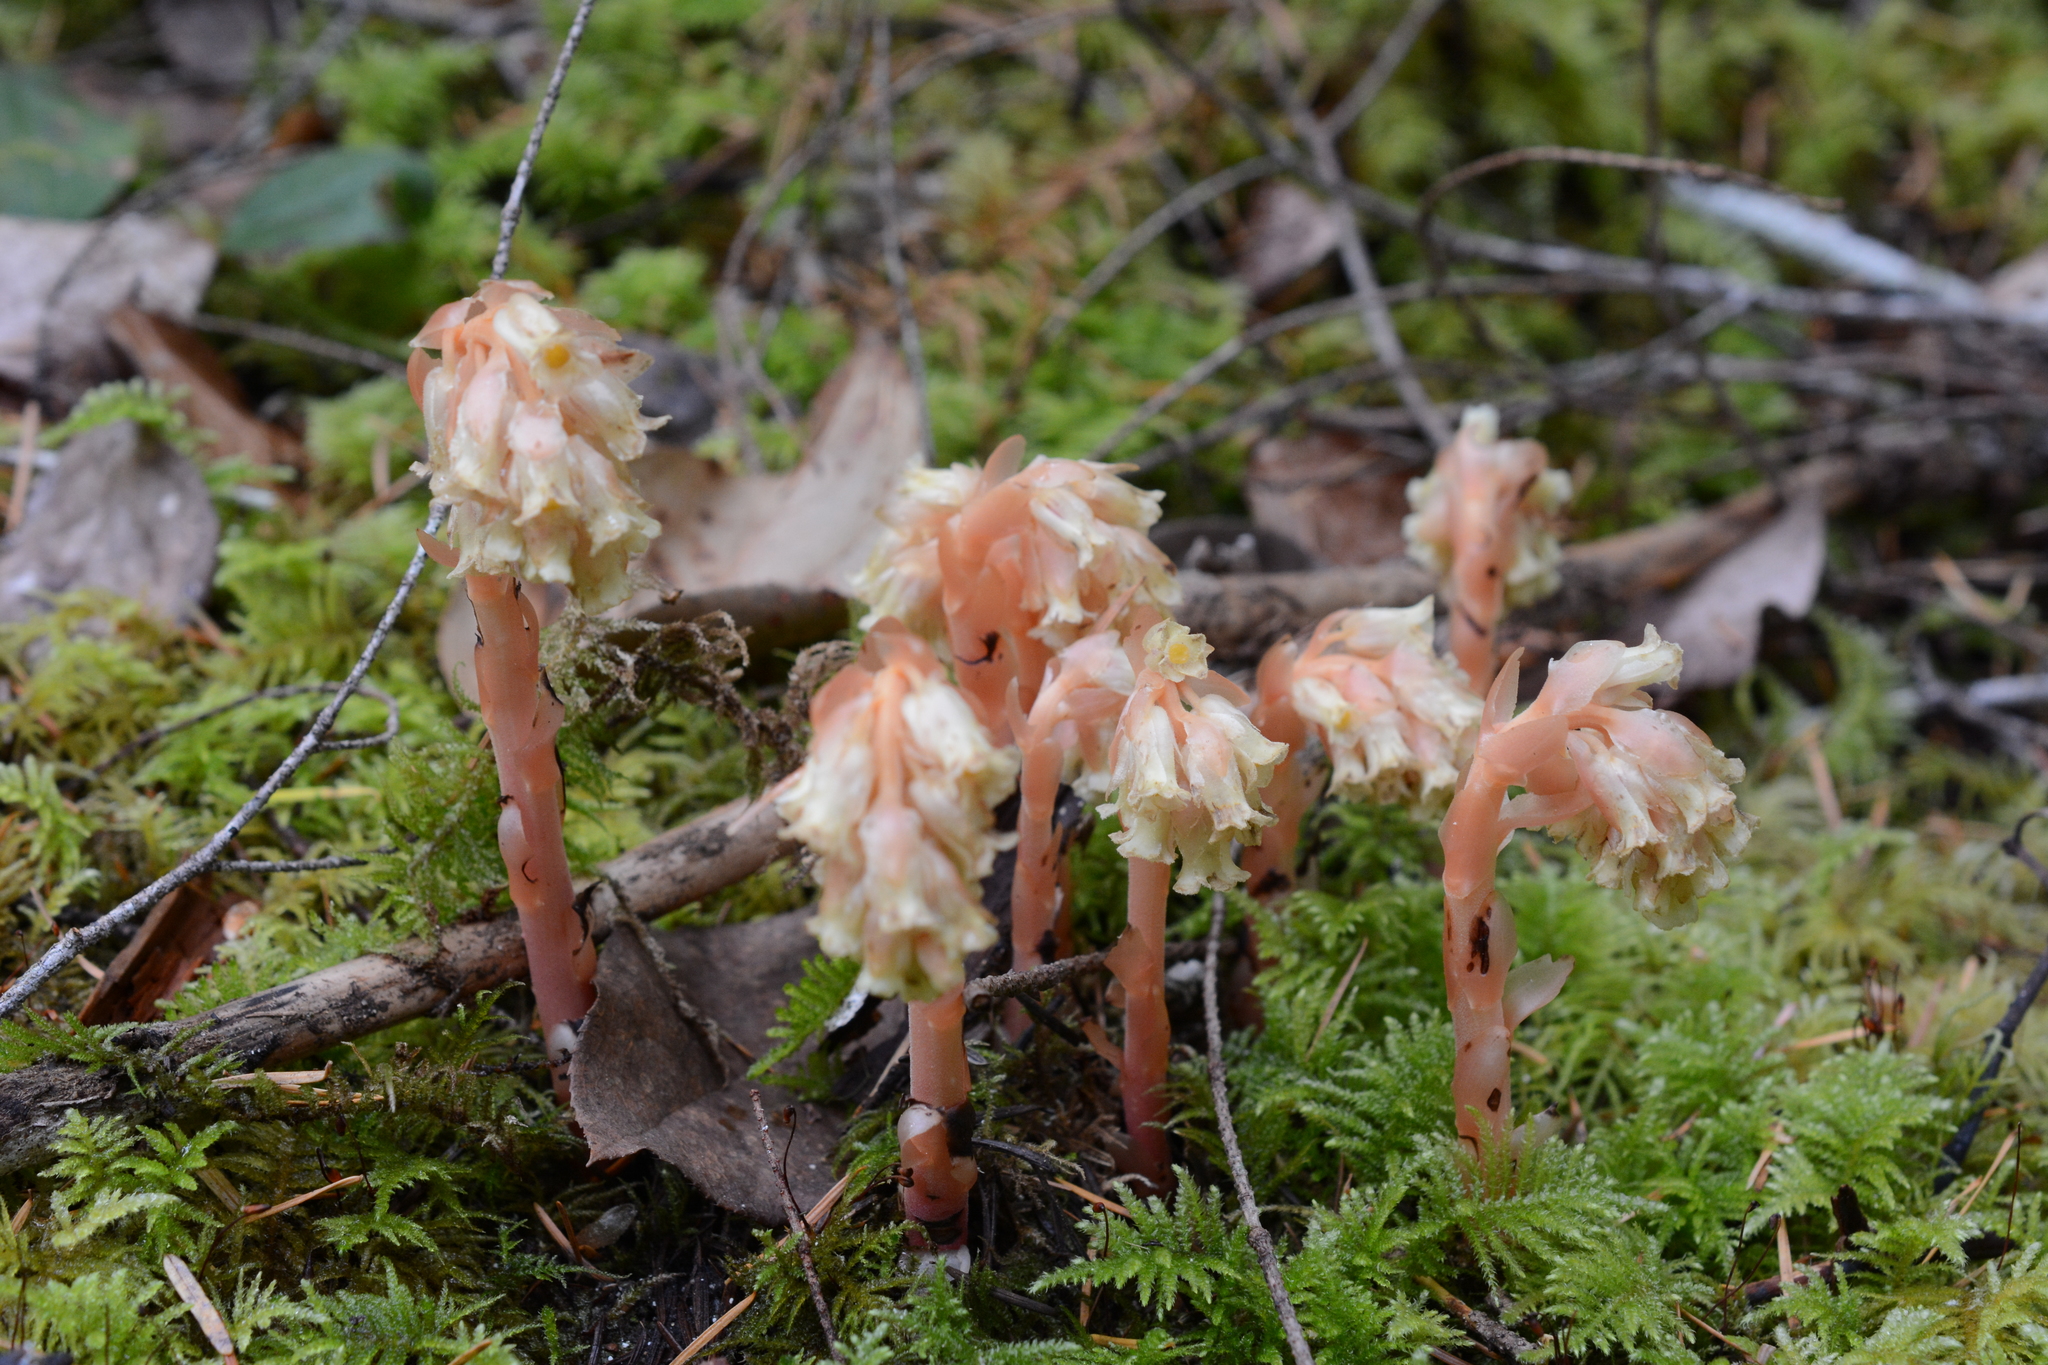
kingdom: Plantae
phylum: Tracheophyta
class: Magnoliopsida
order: Ericales
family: Ericaceae
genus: Hypopitys
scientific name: Hypopitys monotropa
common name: Yellow bird's-nest
